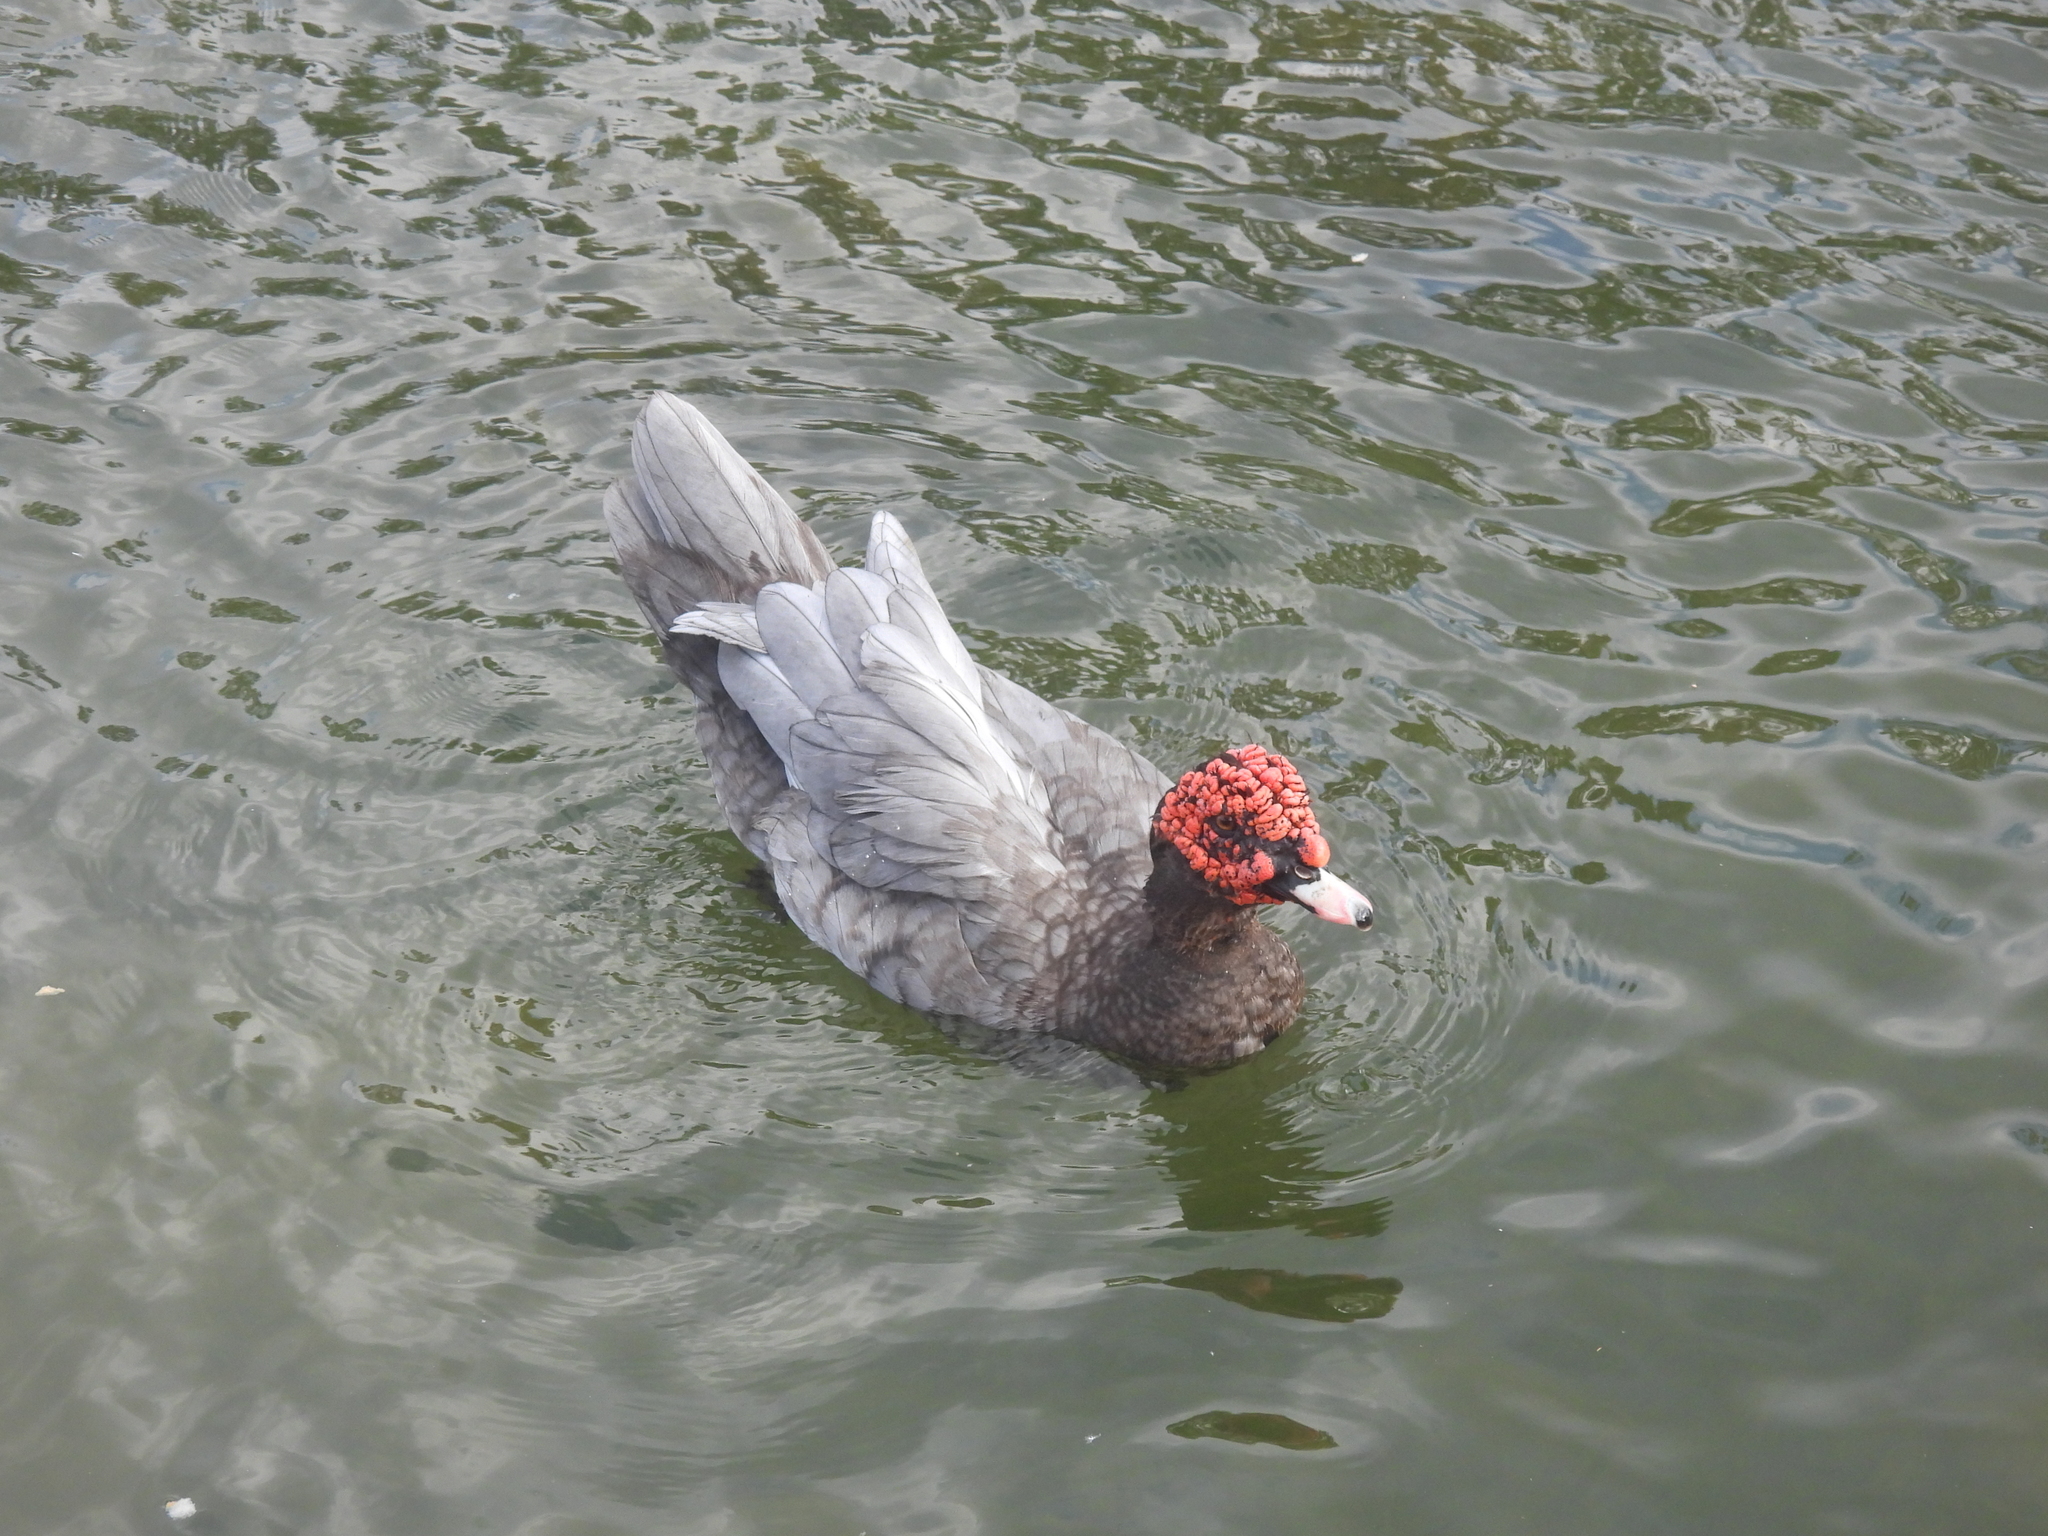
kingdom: Animalia
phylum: Chordata
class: Aves
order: Anseriformes
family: Anatidae
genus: Cairina
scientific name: Cairina moschata
